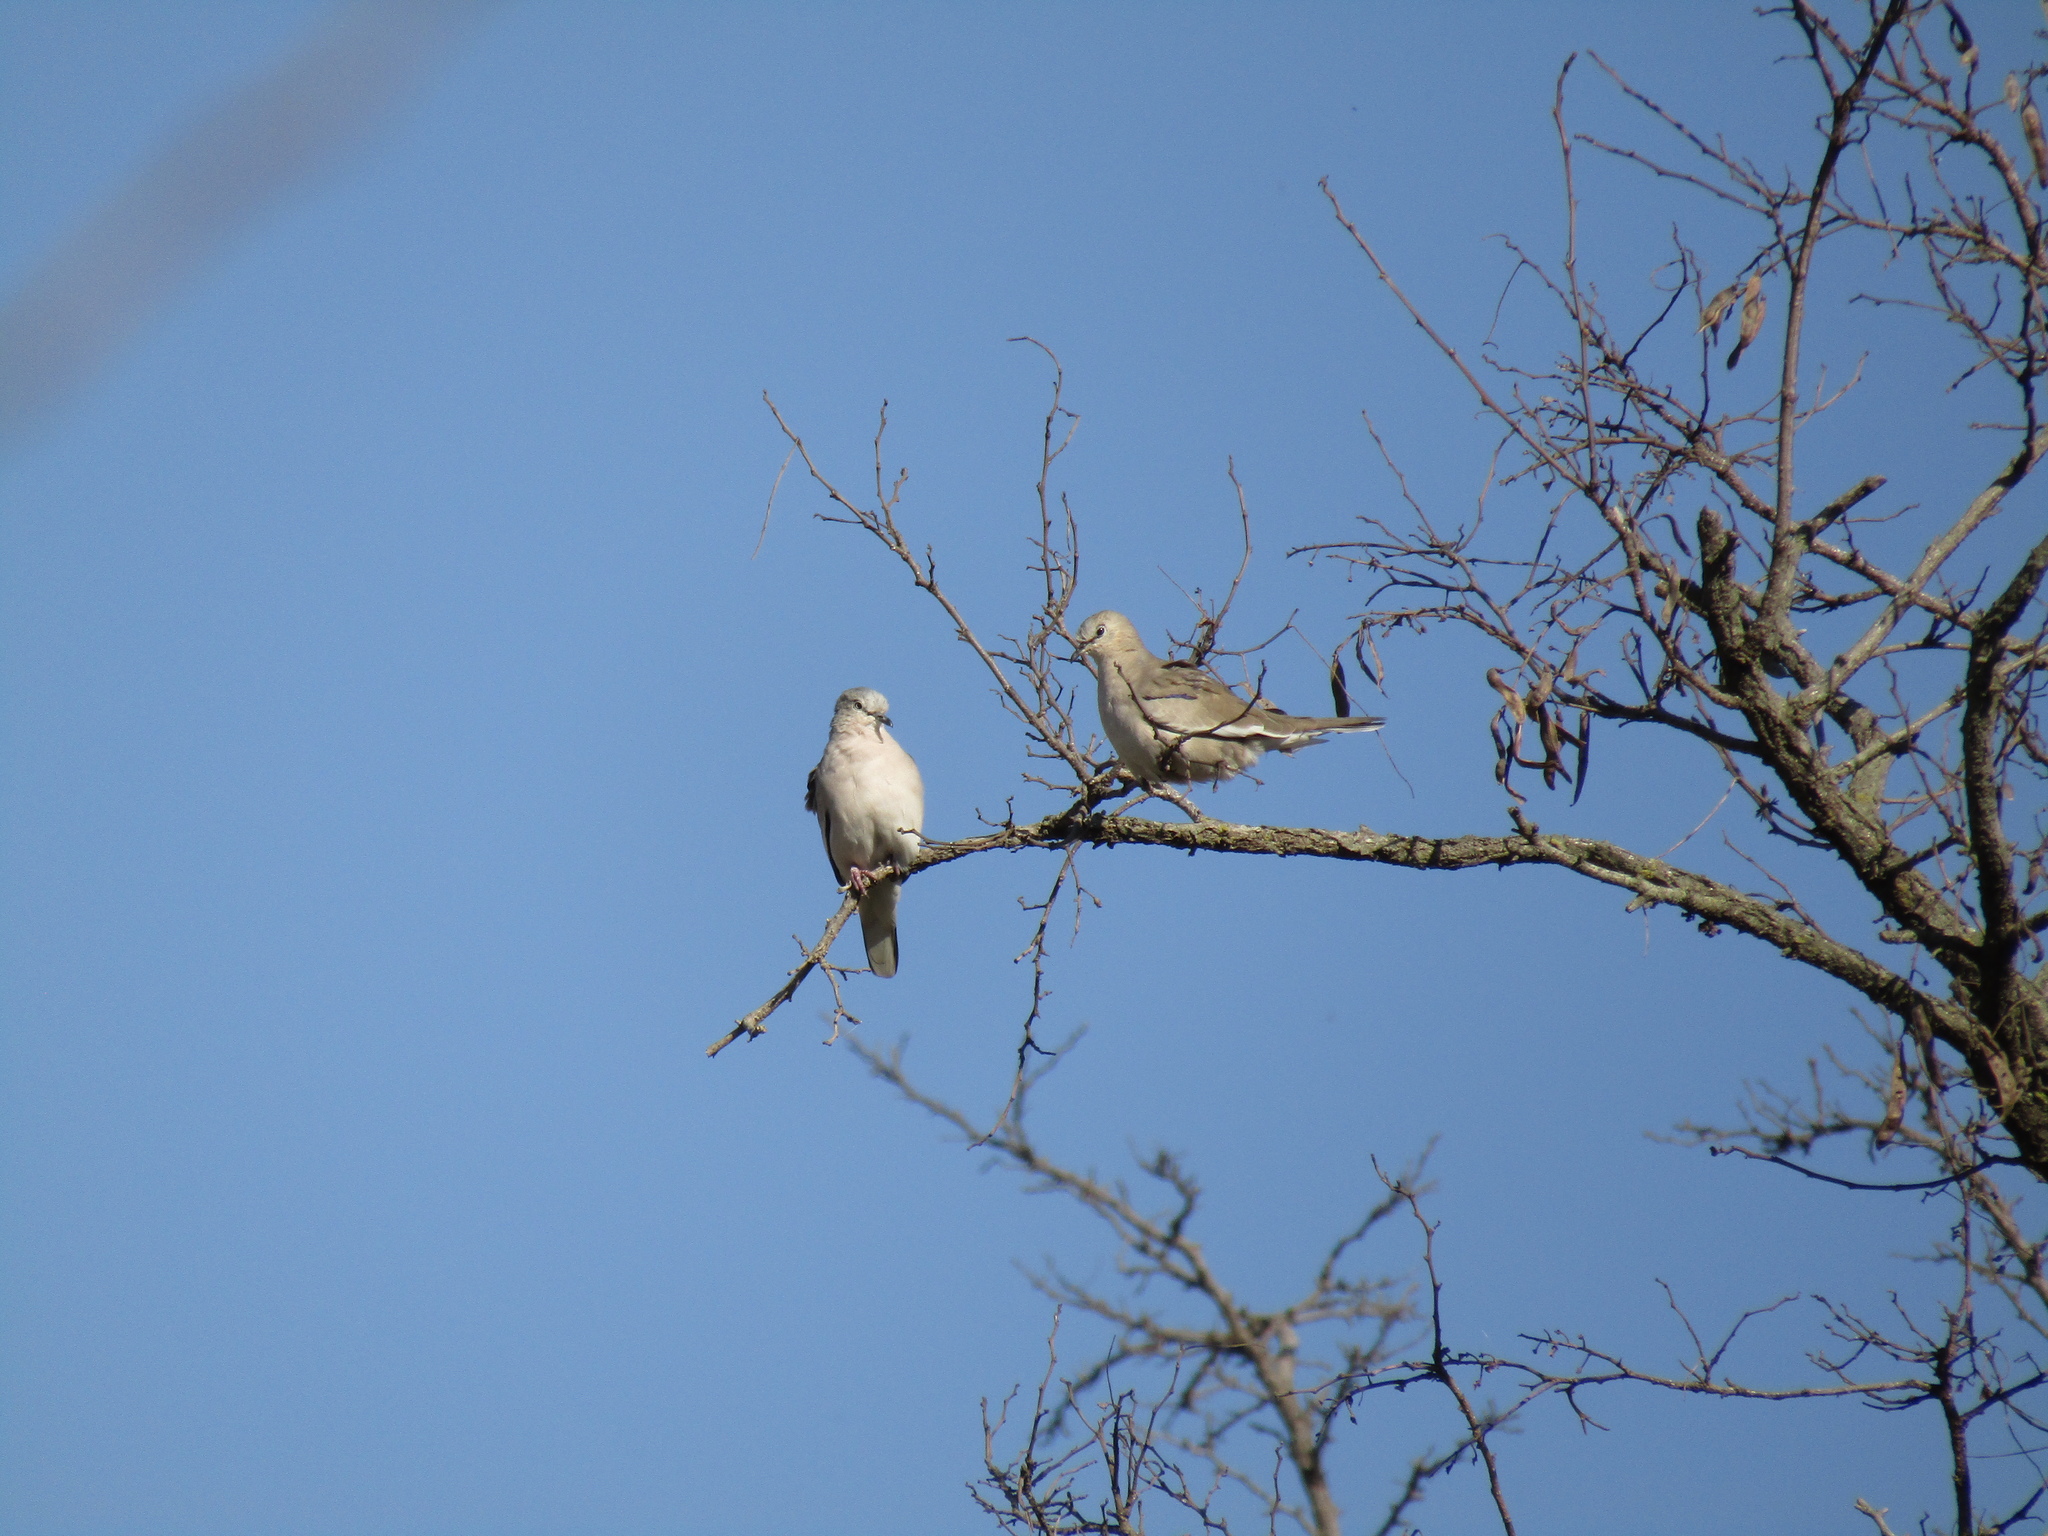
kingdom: Animalia
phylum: Chordata
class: Aves
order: Columbiformes
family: Columbidae
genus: Columbina
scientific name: Columbina picui
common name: Picui ground dove
